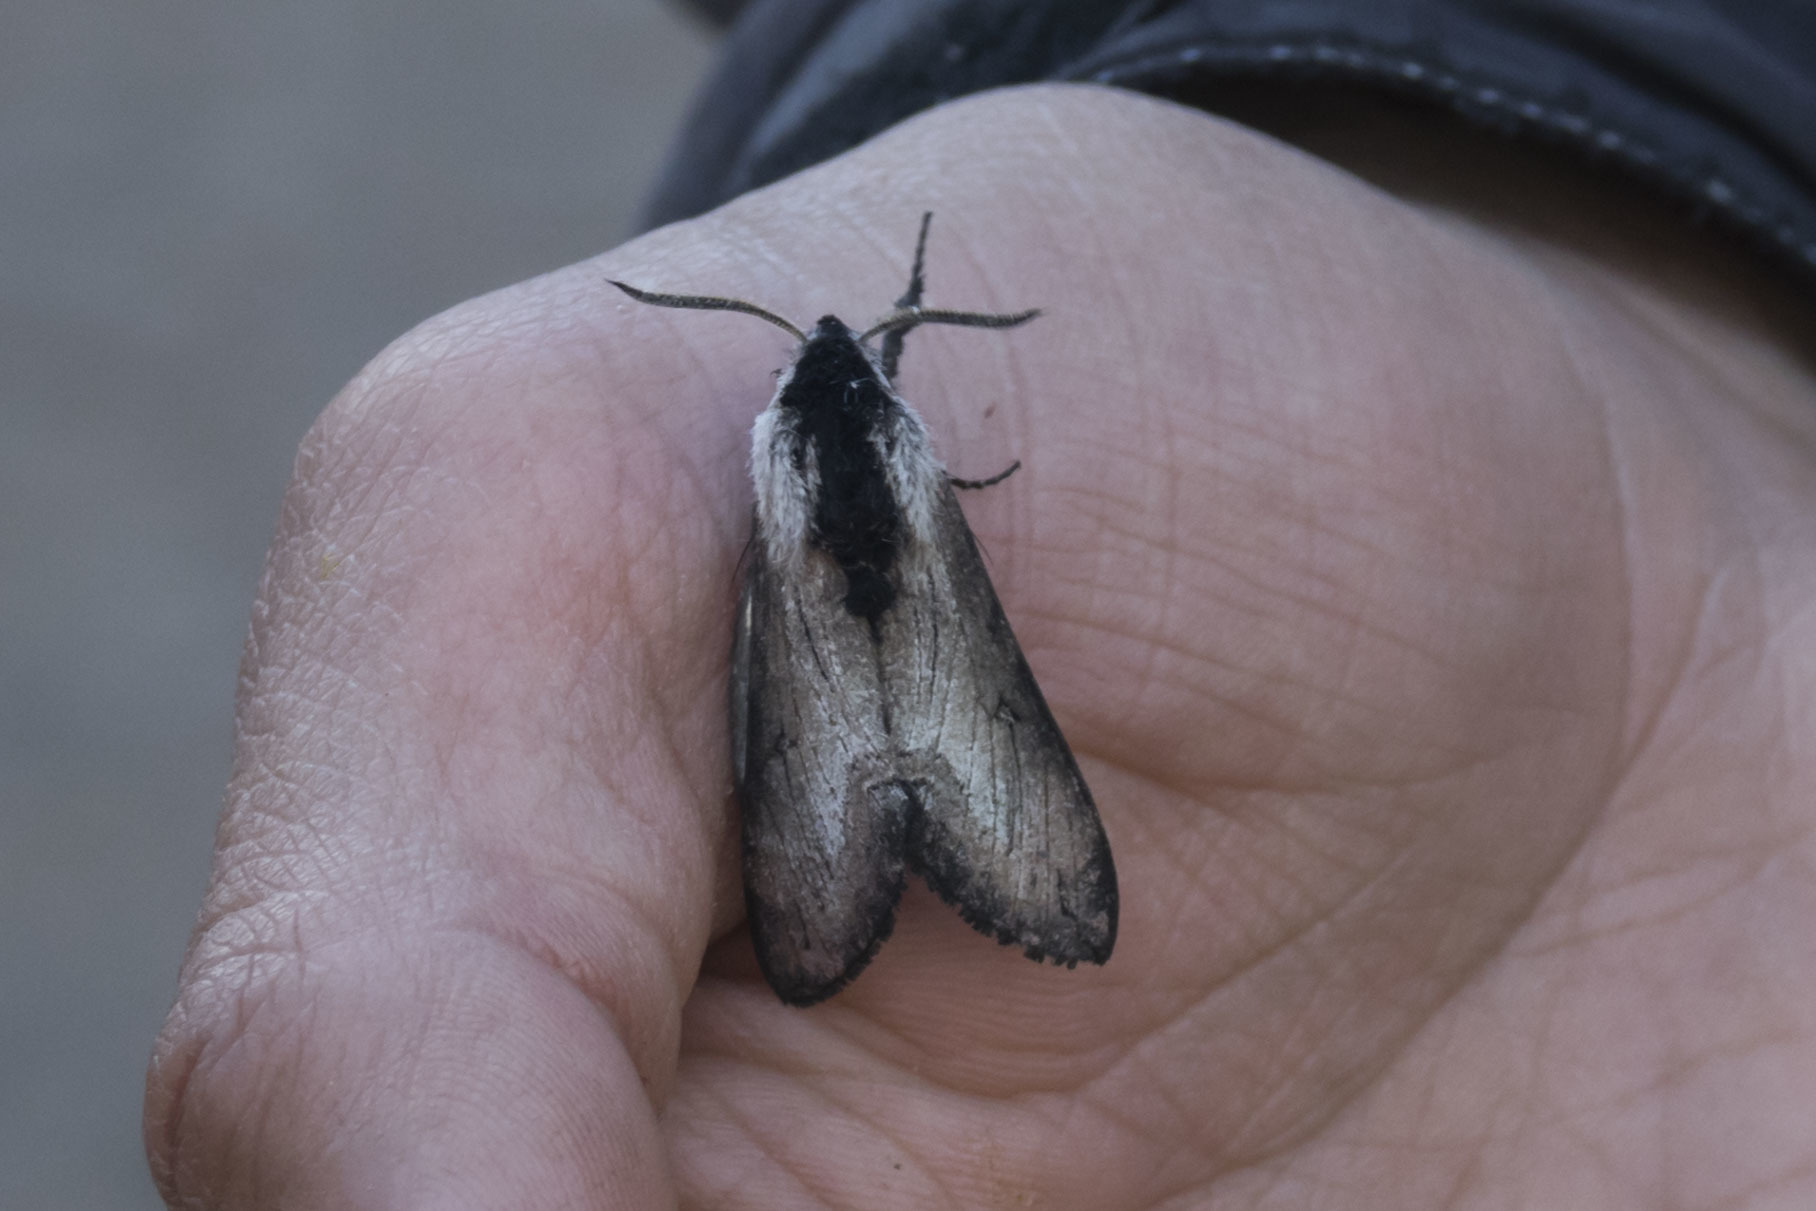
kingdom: Animalia
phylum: Arthropoda
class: Insecta
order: Lepidoptera
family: Sphingidae
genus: Neogene
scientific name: Neogene reevi
